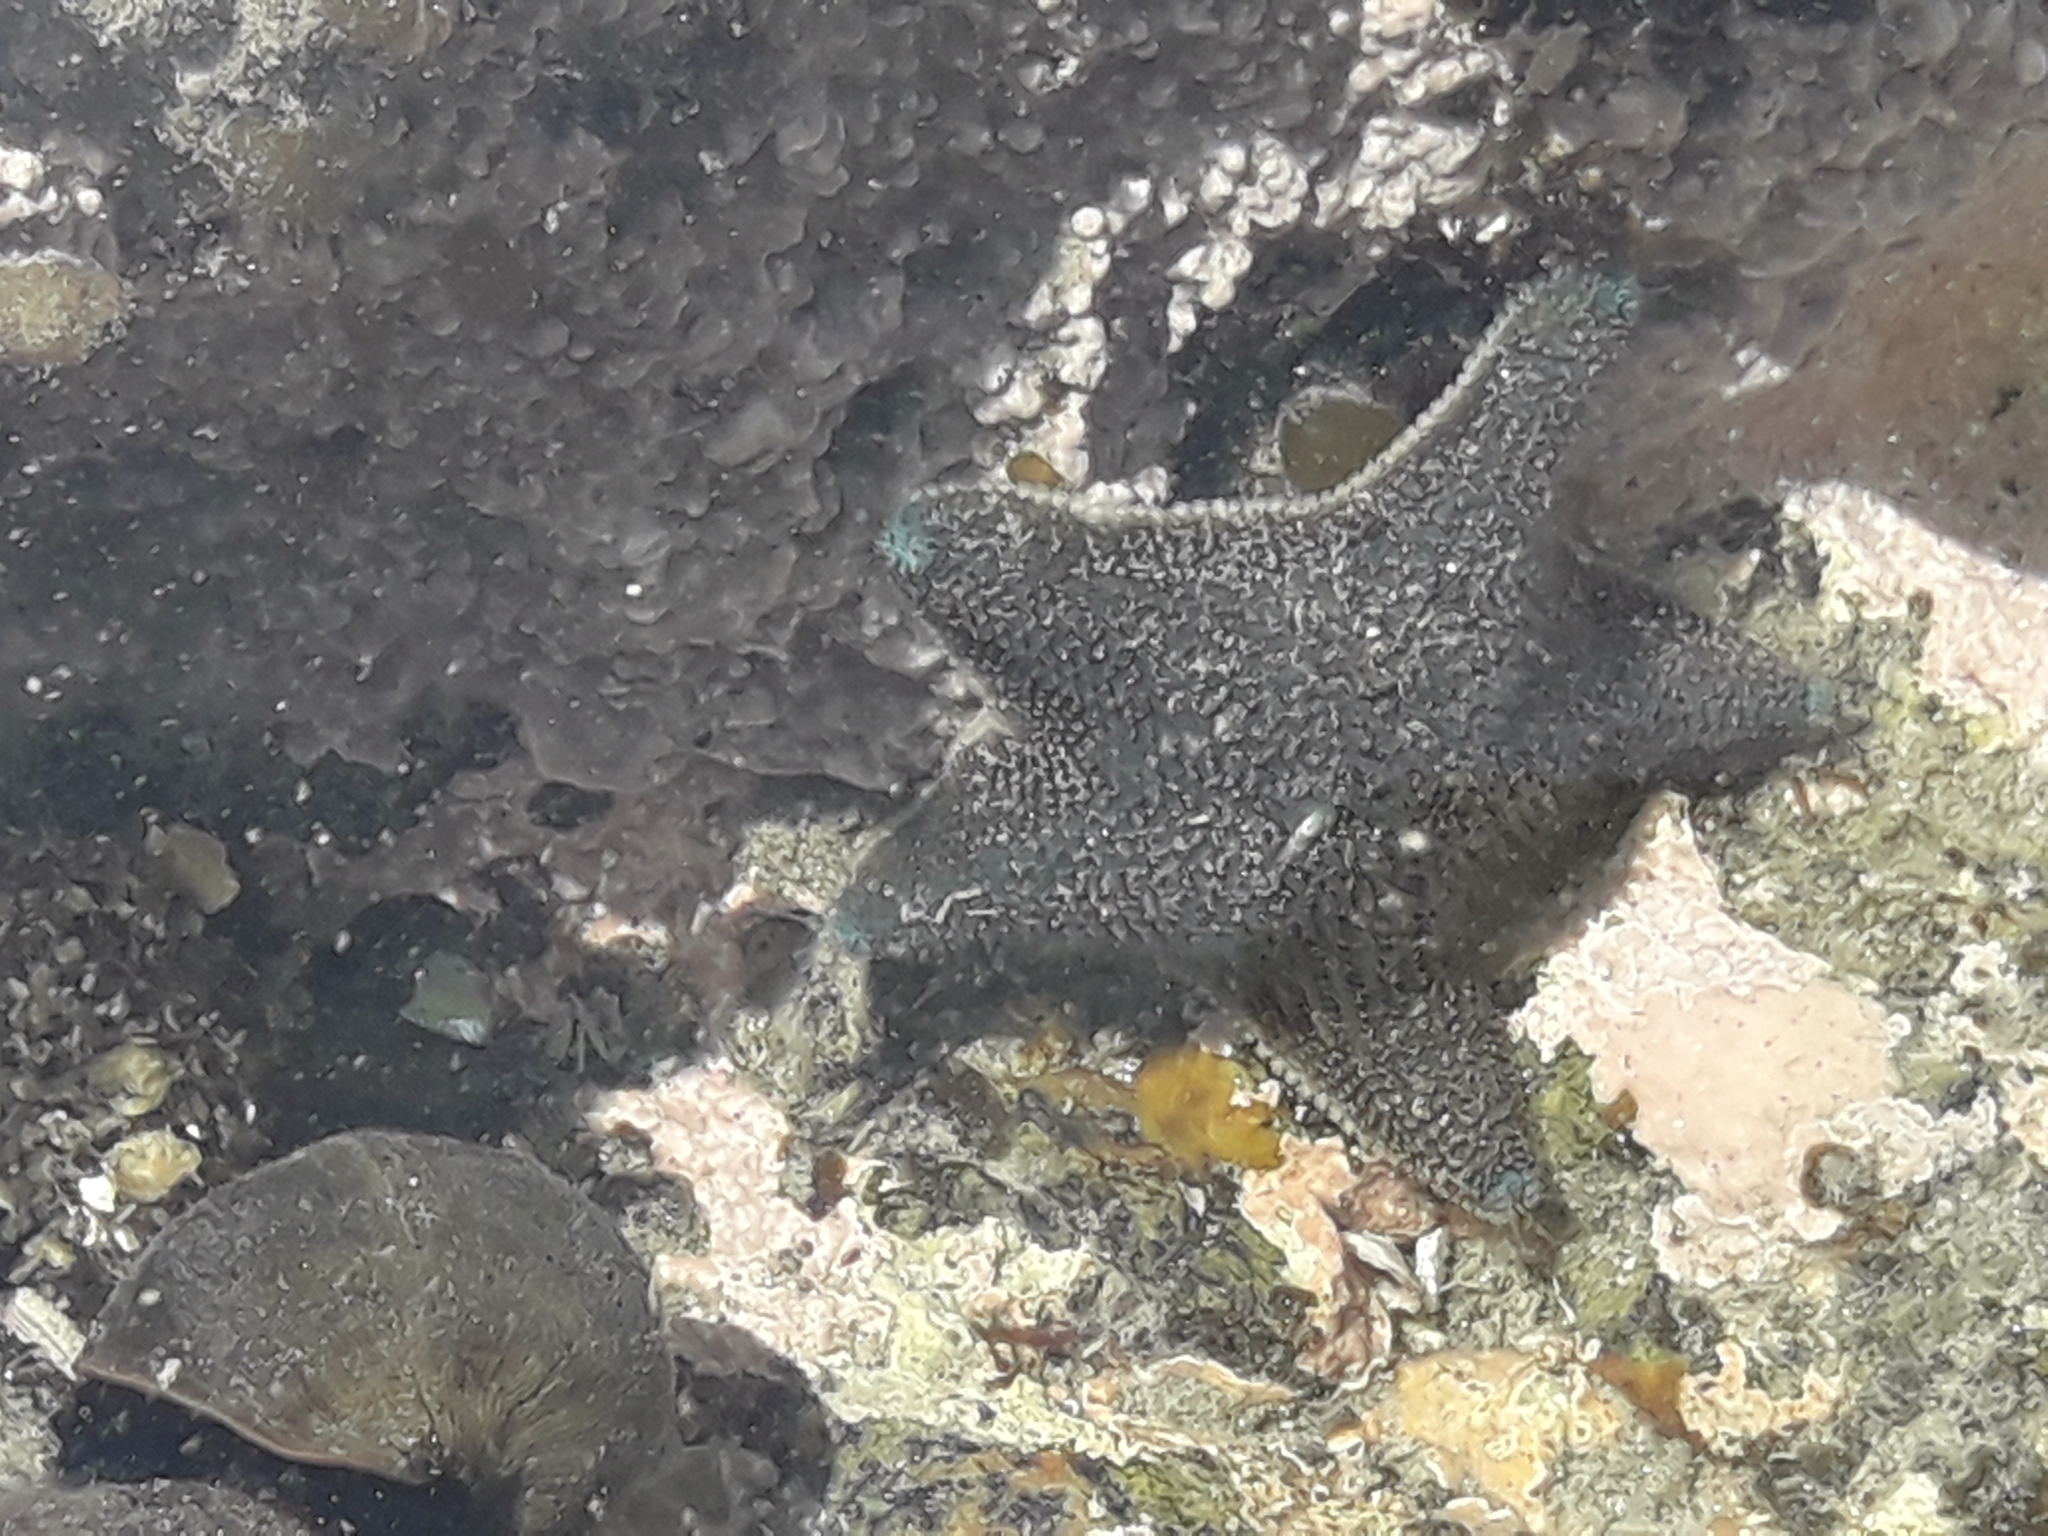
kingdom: Animalia
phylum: Echinodermata
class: Asteroidea
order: Valvatida
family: Asterinidae
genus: Patiriella
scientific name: Patiriella regularis
